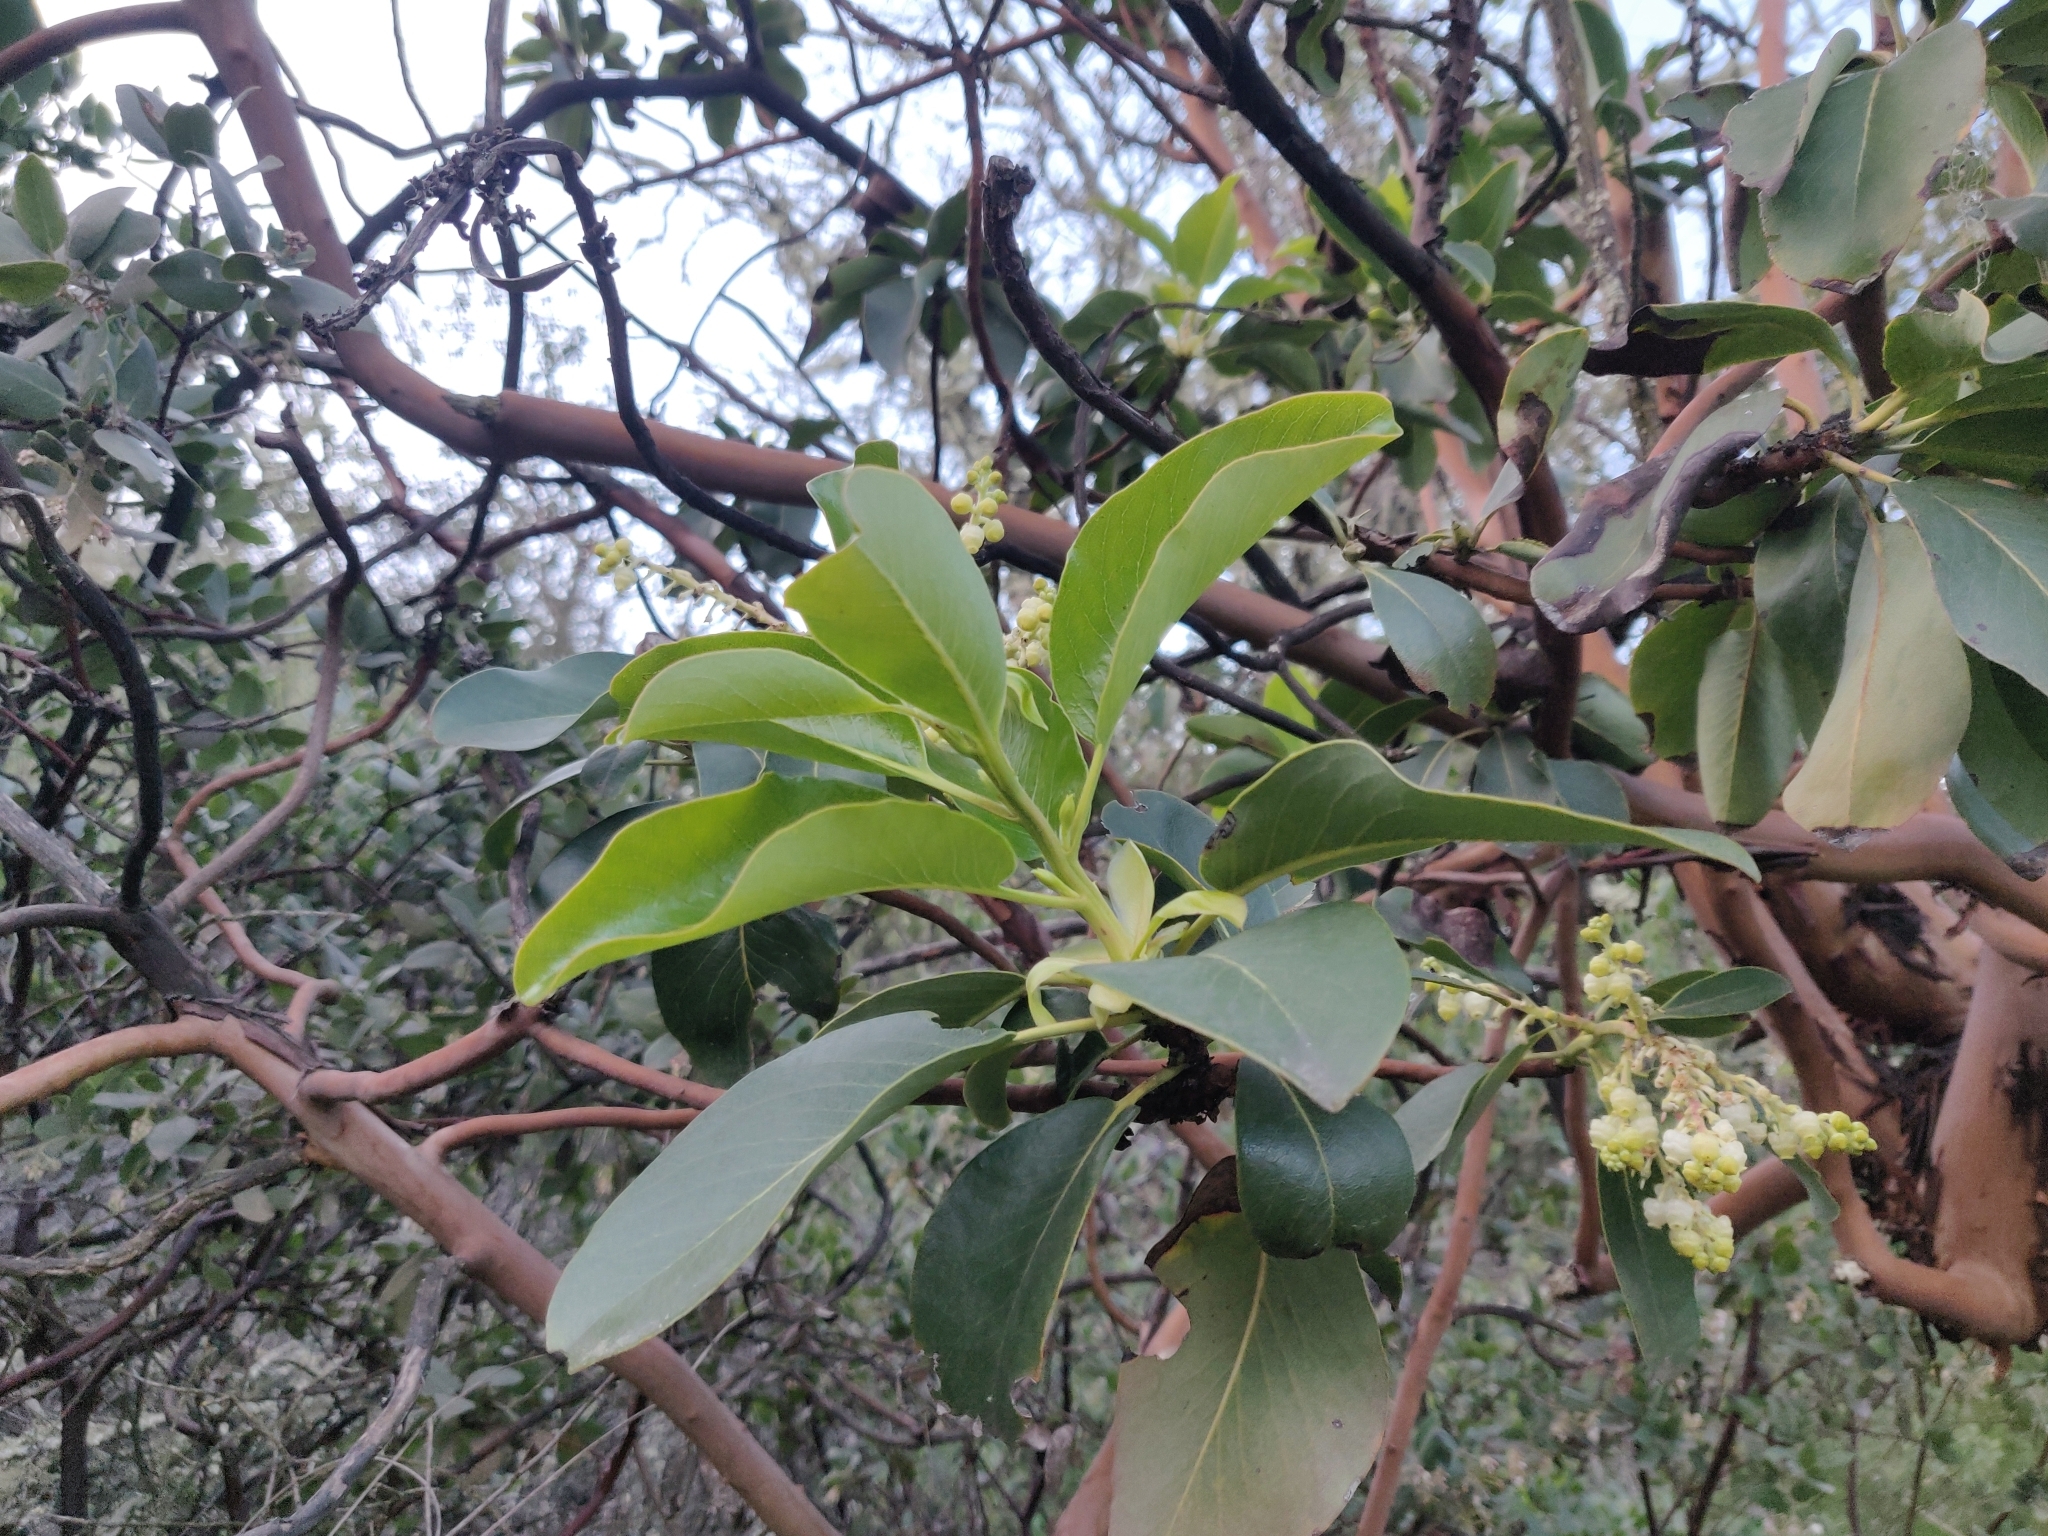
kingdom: Plantae
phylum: Tracheophyta
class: Magnoliopsida
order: Ericales
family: Ericaceae
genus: Arbutus
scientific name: Arbutus menziesii
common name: Pacific madrone
